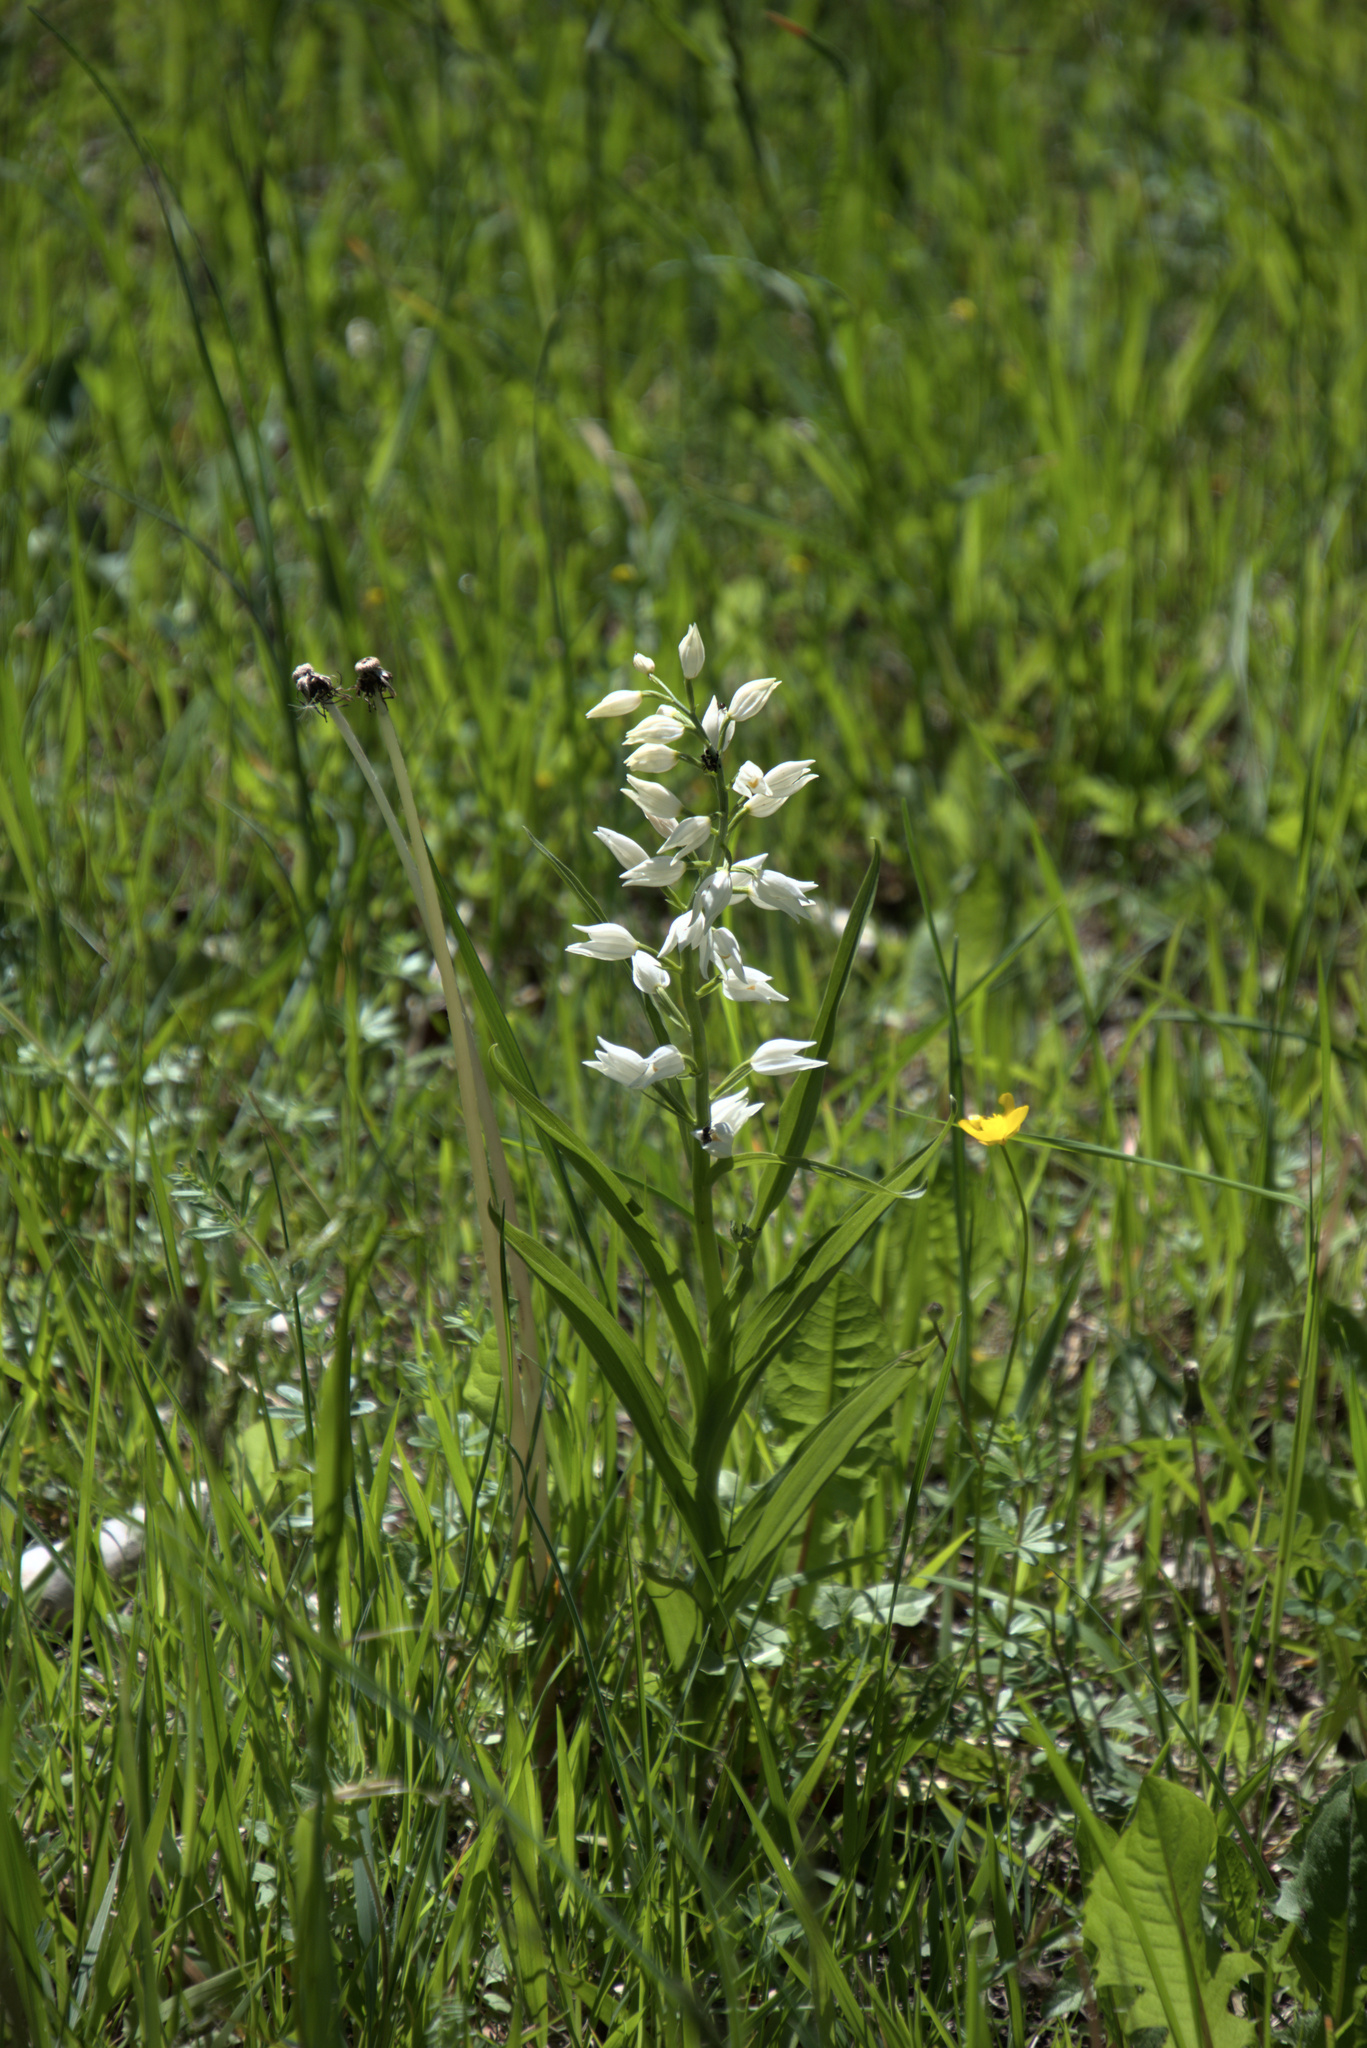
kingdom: Plantae
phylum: Tracheophyta
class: Liliopsida
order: Asparagales
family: Orchidaceae
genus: Cephalanthera
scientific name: Cephalanthera longifolia
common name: Narrow-leaved helleborine
